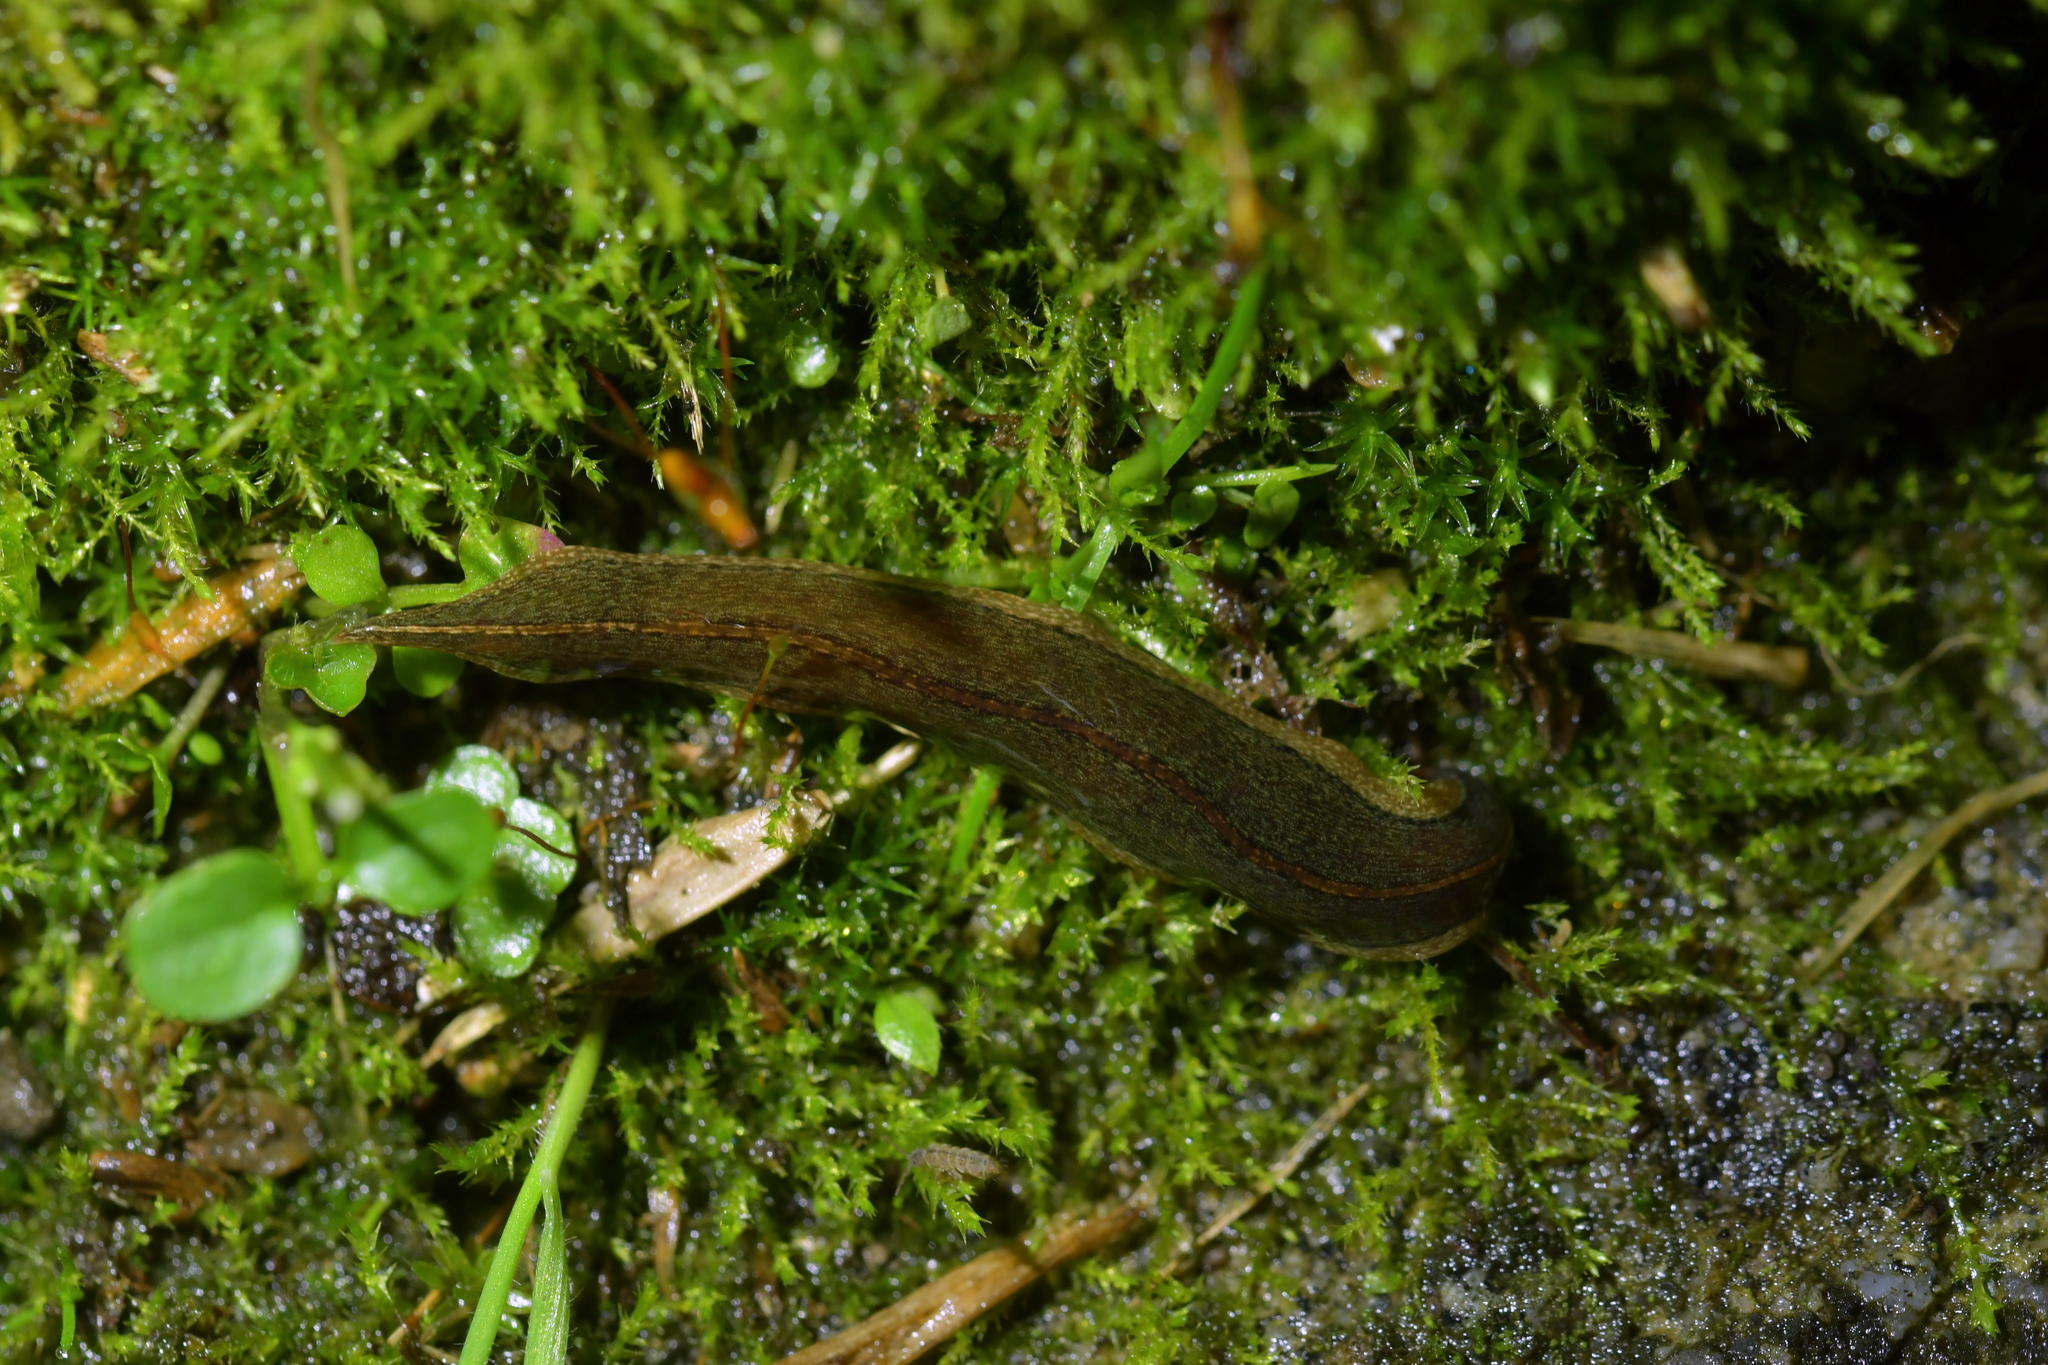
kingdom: Animalia
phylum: Platyhelminthes
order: Tricladida
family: Geoplanidae
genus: Newzealandia
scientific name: Newzealandia graffii
